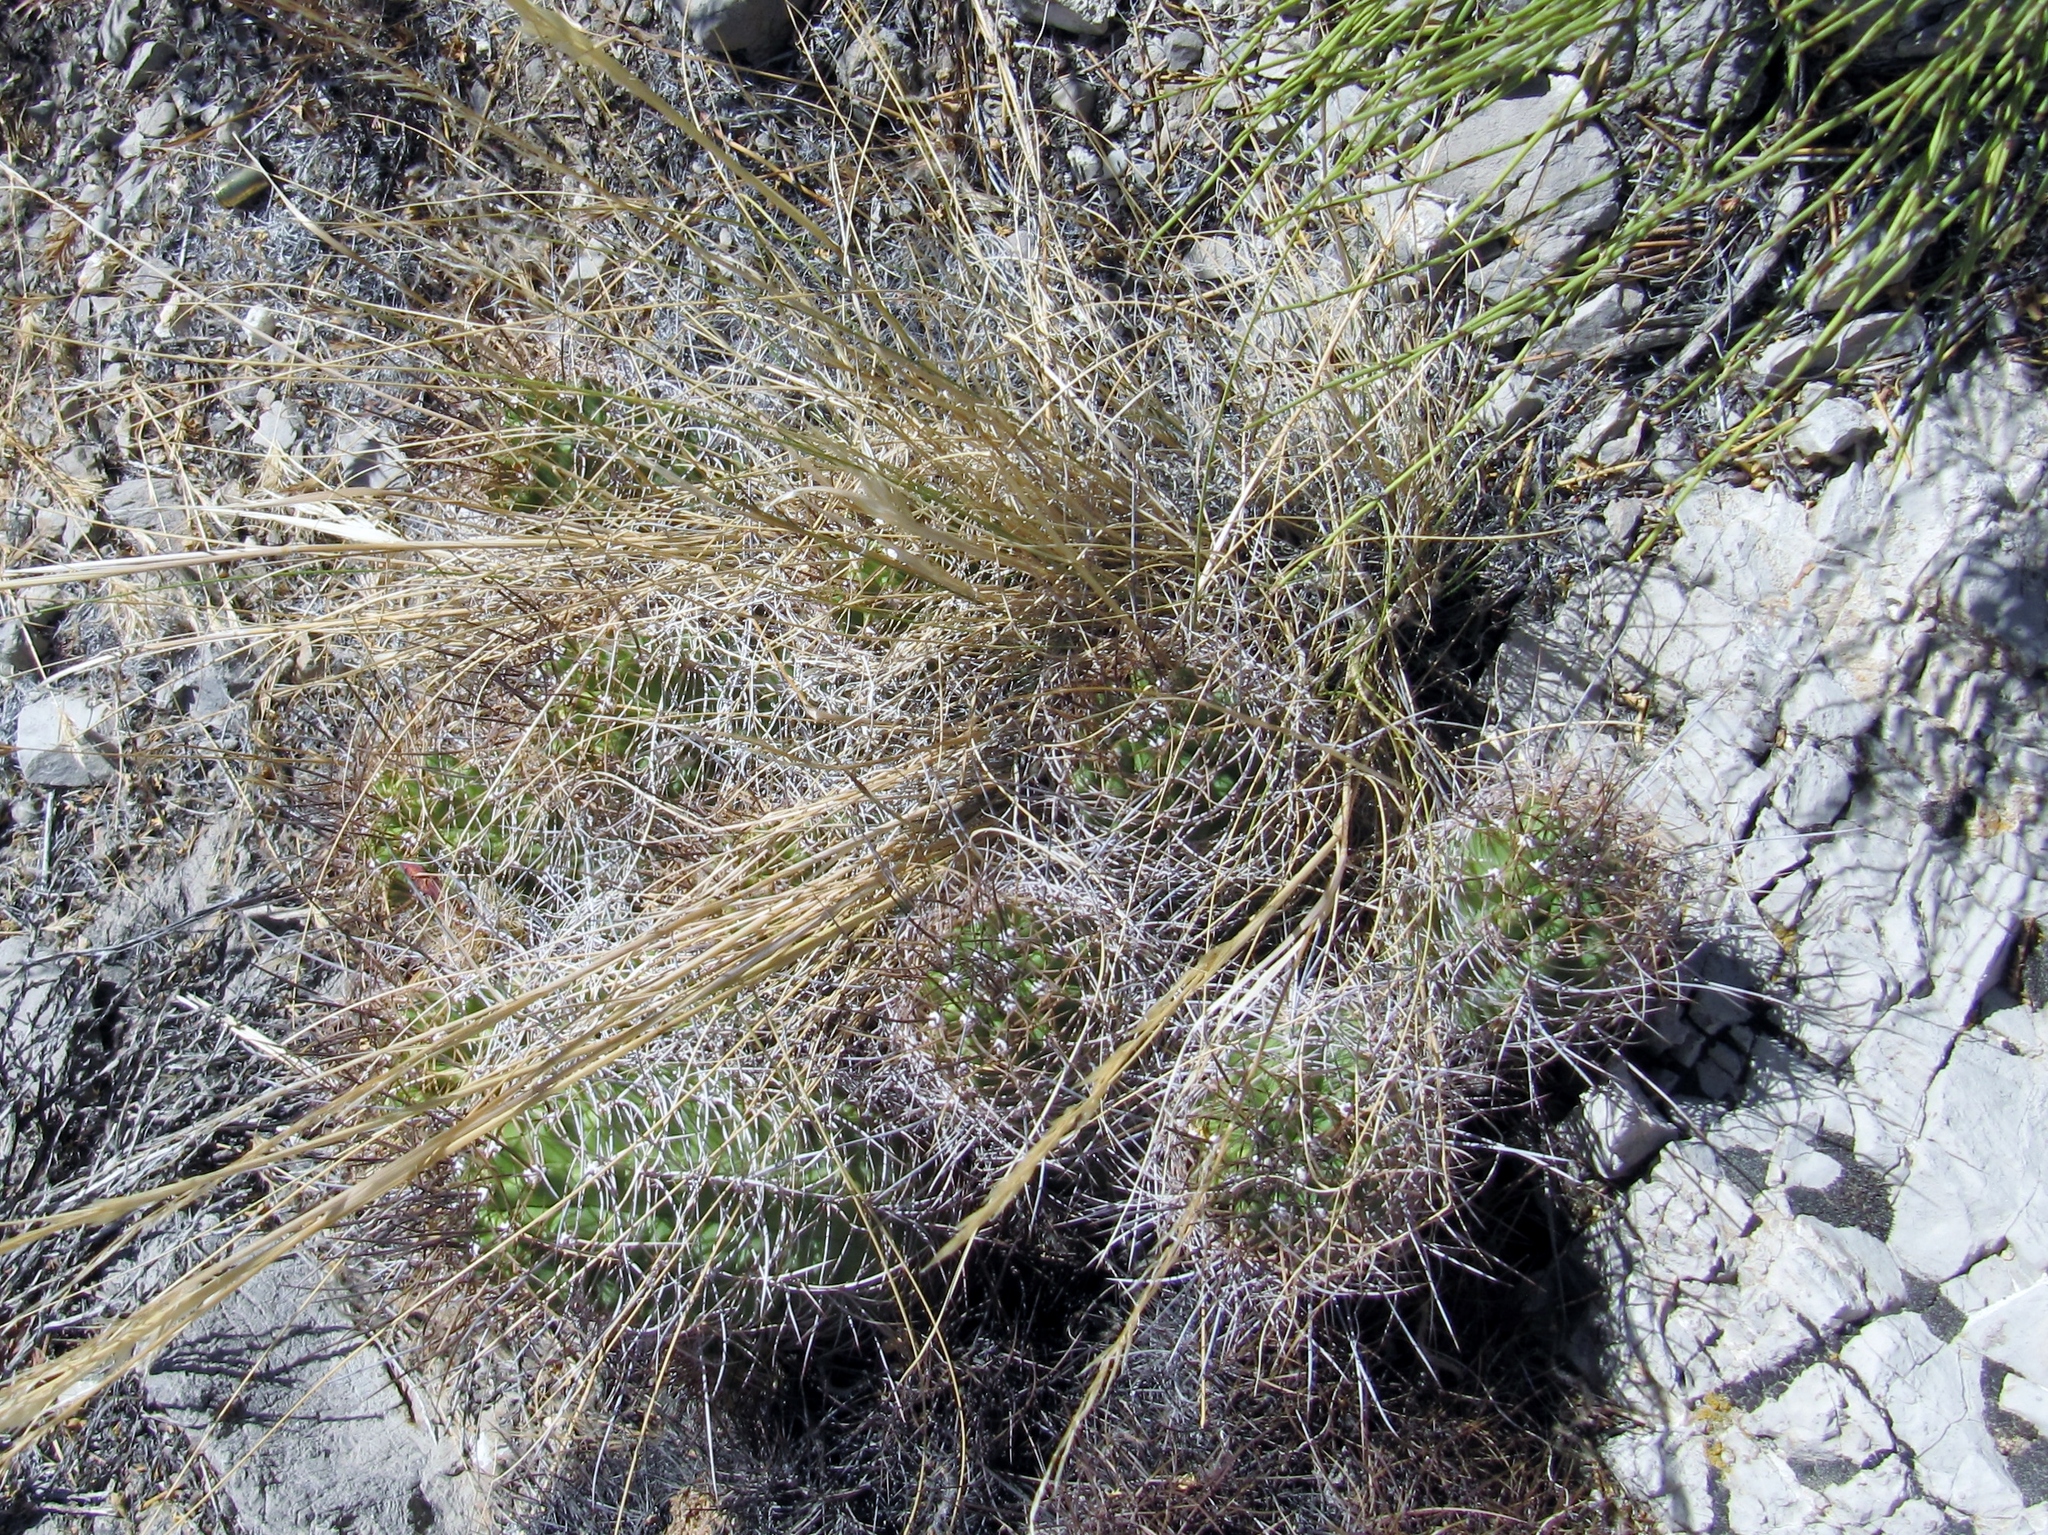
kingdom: Plantae
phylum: Tracheophyta
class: Magnoliopsida
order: Caryophyllales
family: Cactaceae
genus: Echinocereus
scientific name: Echinocereus triglochidiatus
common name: Claretcup hedgehog
